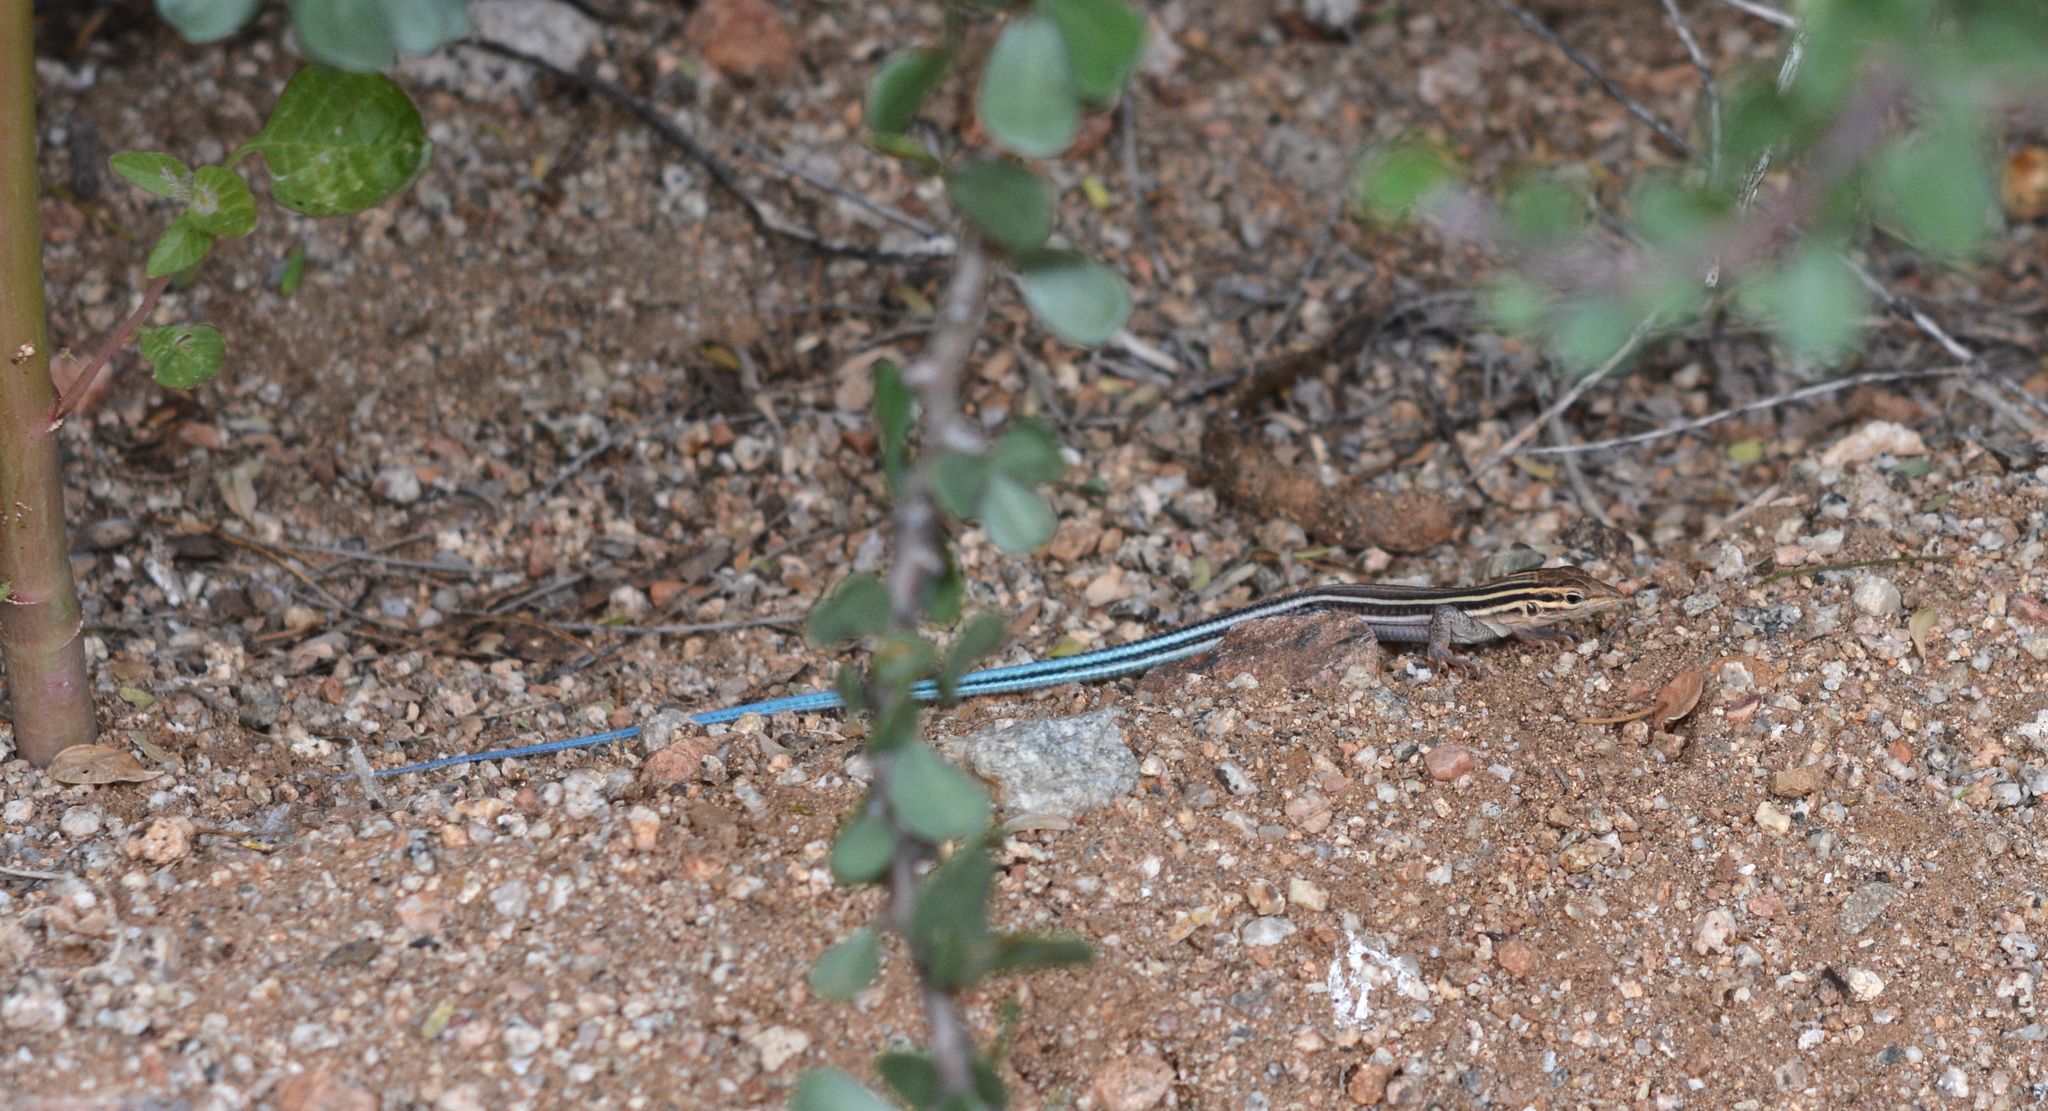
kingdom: Animalia
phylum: Chordata
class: Squamata
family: Teiidae
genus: Aspidoscelis
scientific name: Aspidoscelis hyperythrus
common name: Orange-throated race-runner
